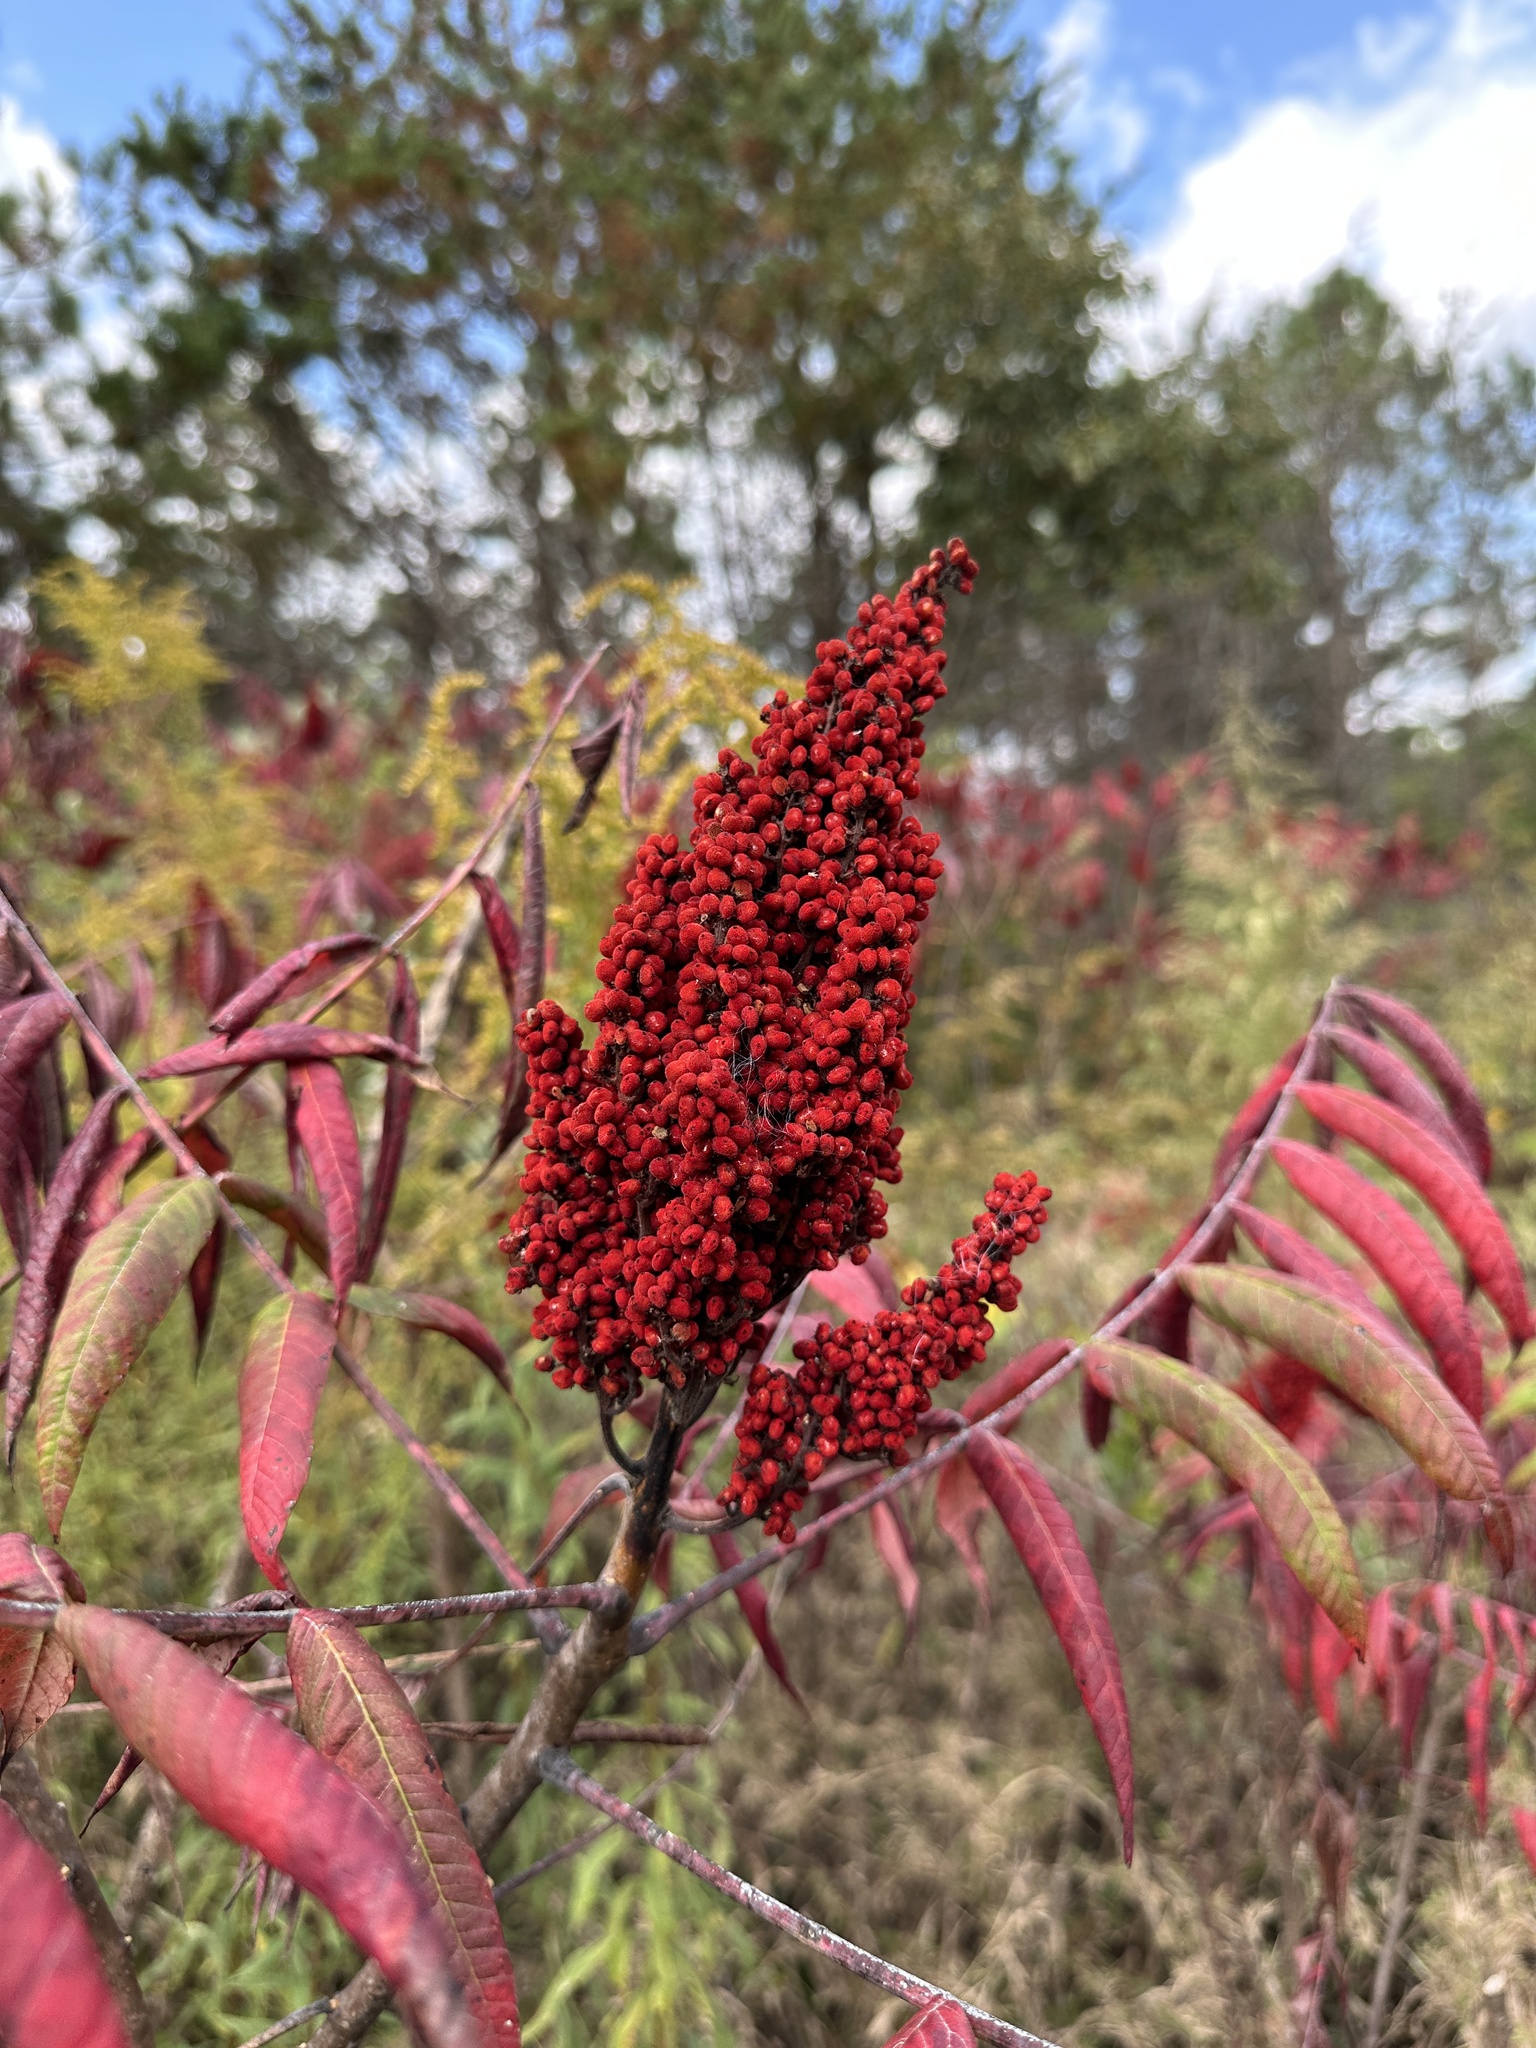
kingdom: Plantae
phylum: Tracheophyta
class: Magnoliopsida
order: Sapindales
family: Anacardiaceae
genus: Rhus
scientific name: Rhus glabra
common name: Scarlet sumac
